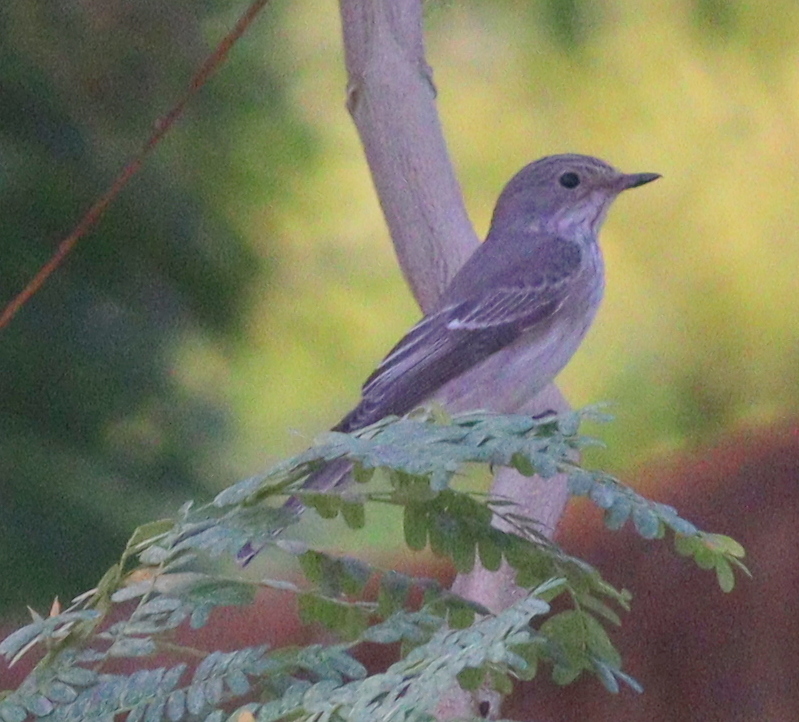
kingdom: Animalia
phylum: Chordata
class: Aves
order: Passeriformes
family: Muscicapidae
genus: Muscicapa
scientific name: Muscicapa striata
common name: Spotted flycatcher
